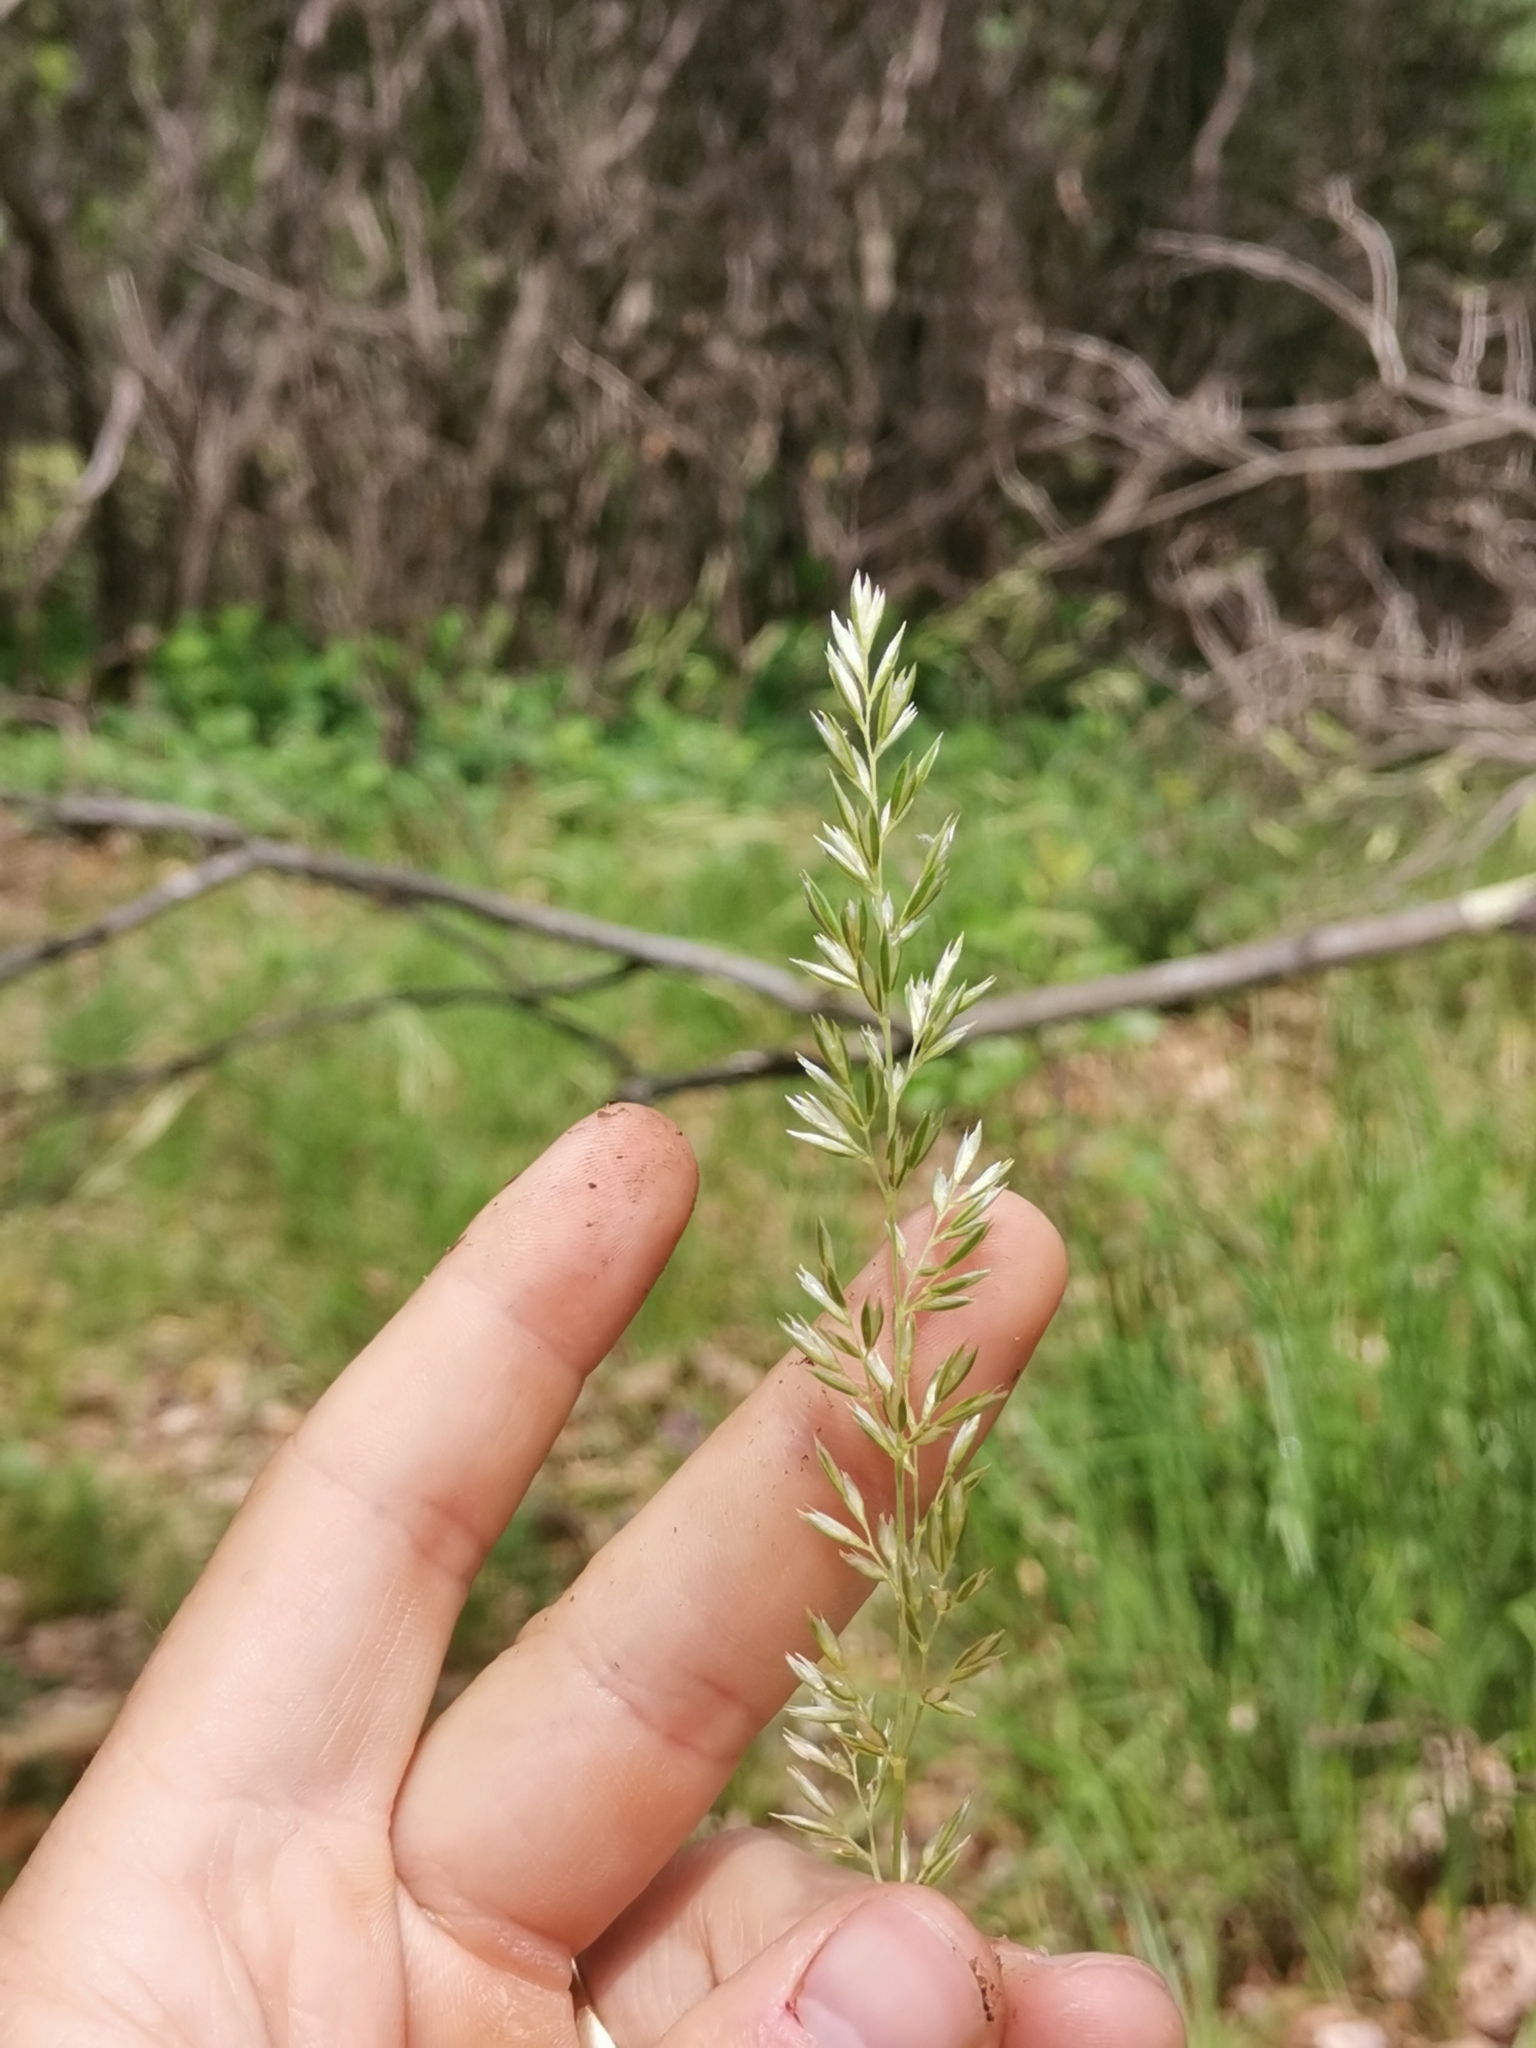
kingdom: Plantae
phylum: Tracheophyta
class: Liliopsida
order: Poales
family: Poaceae
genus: Koeleria
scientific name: Koeleria pyramidata
